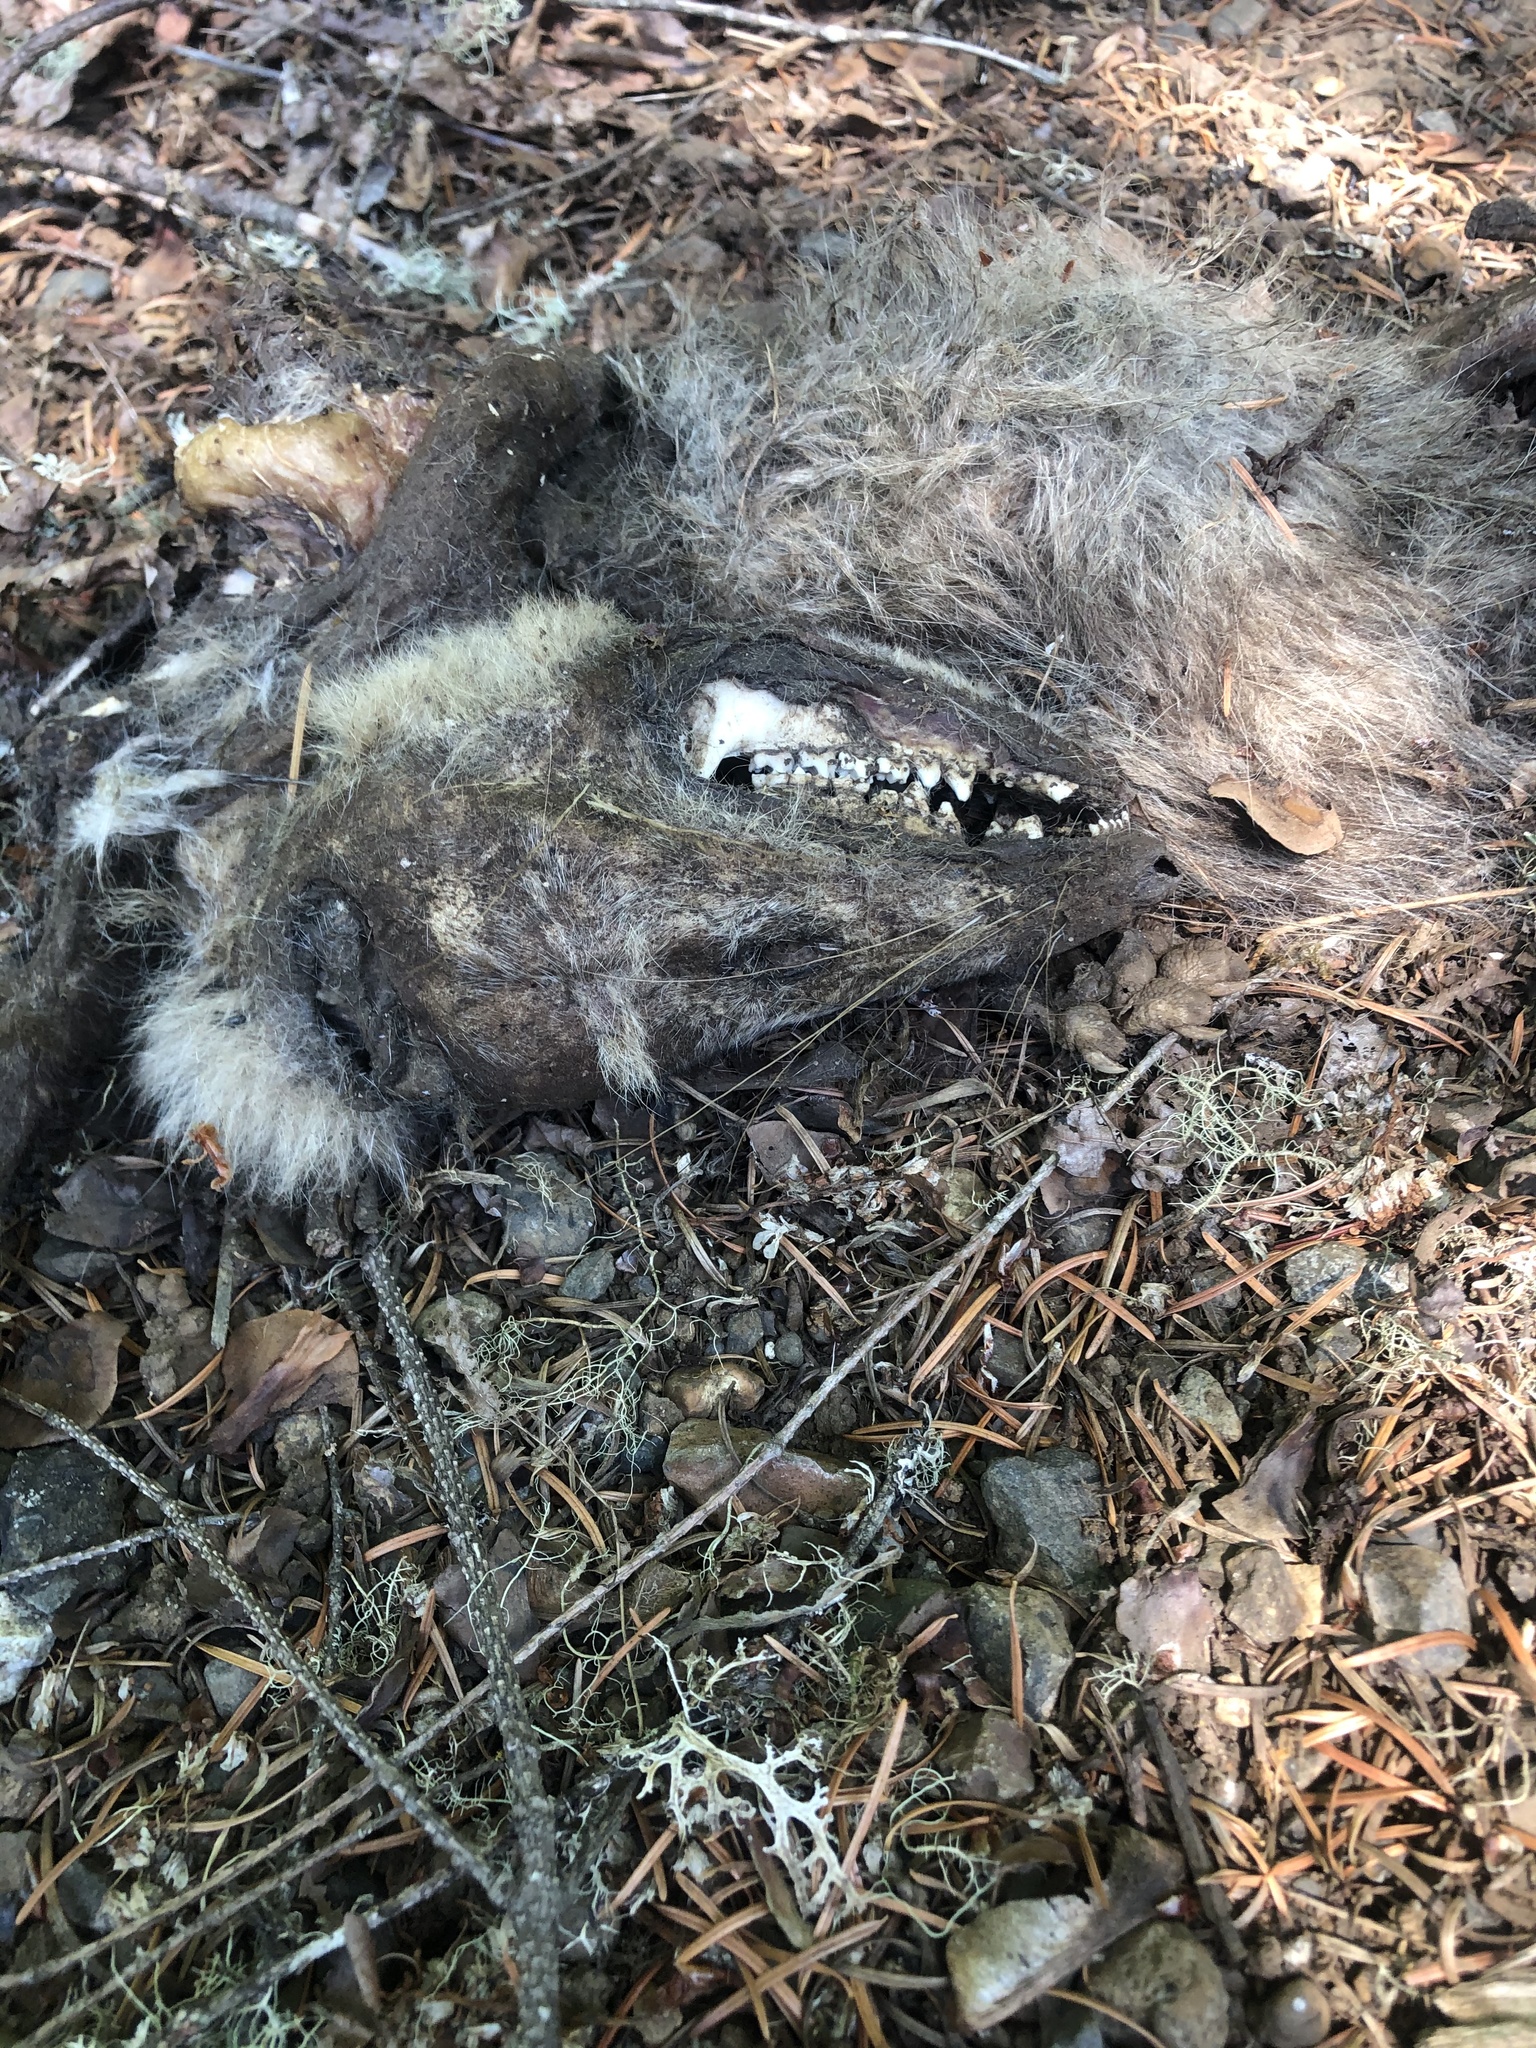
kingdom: Animalia
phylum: Chordata
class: Mammalia
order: Didelphimorphia
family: Didelphidae
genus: Didelphis
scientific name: Didelphis virginiana
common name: Virginia opossum
